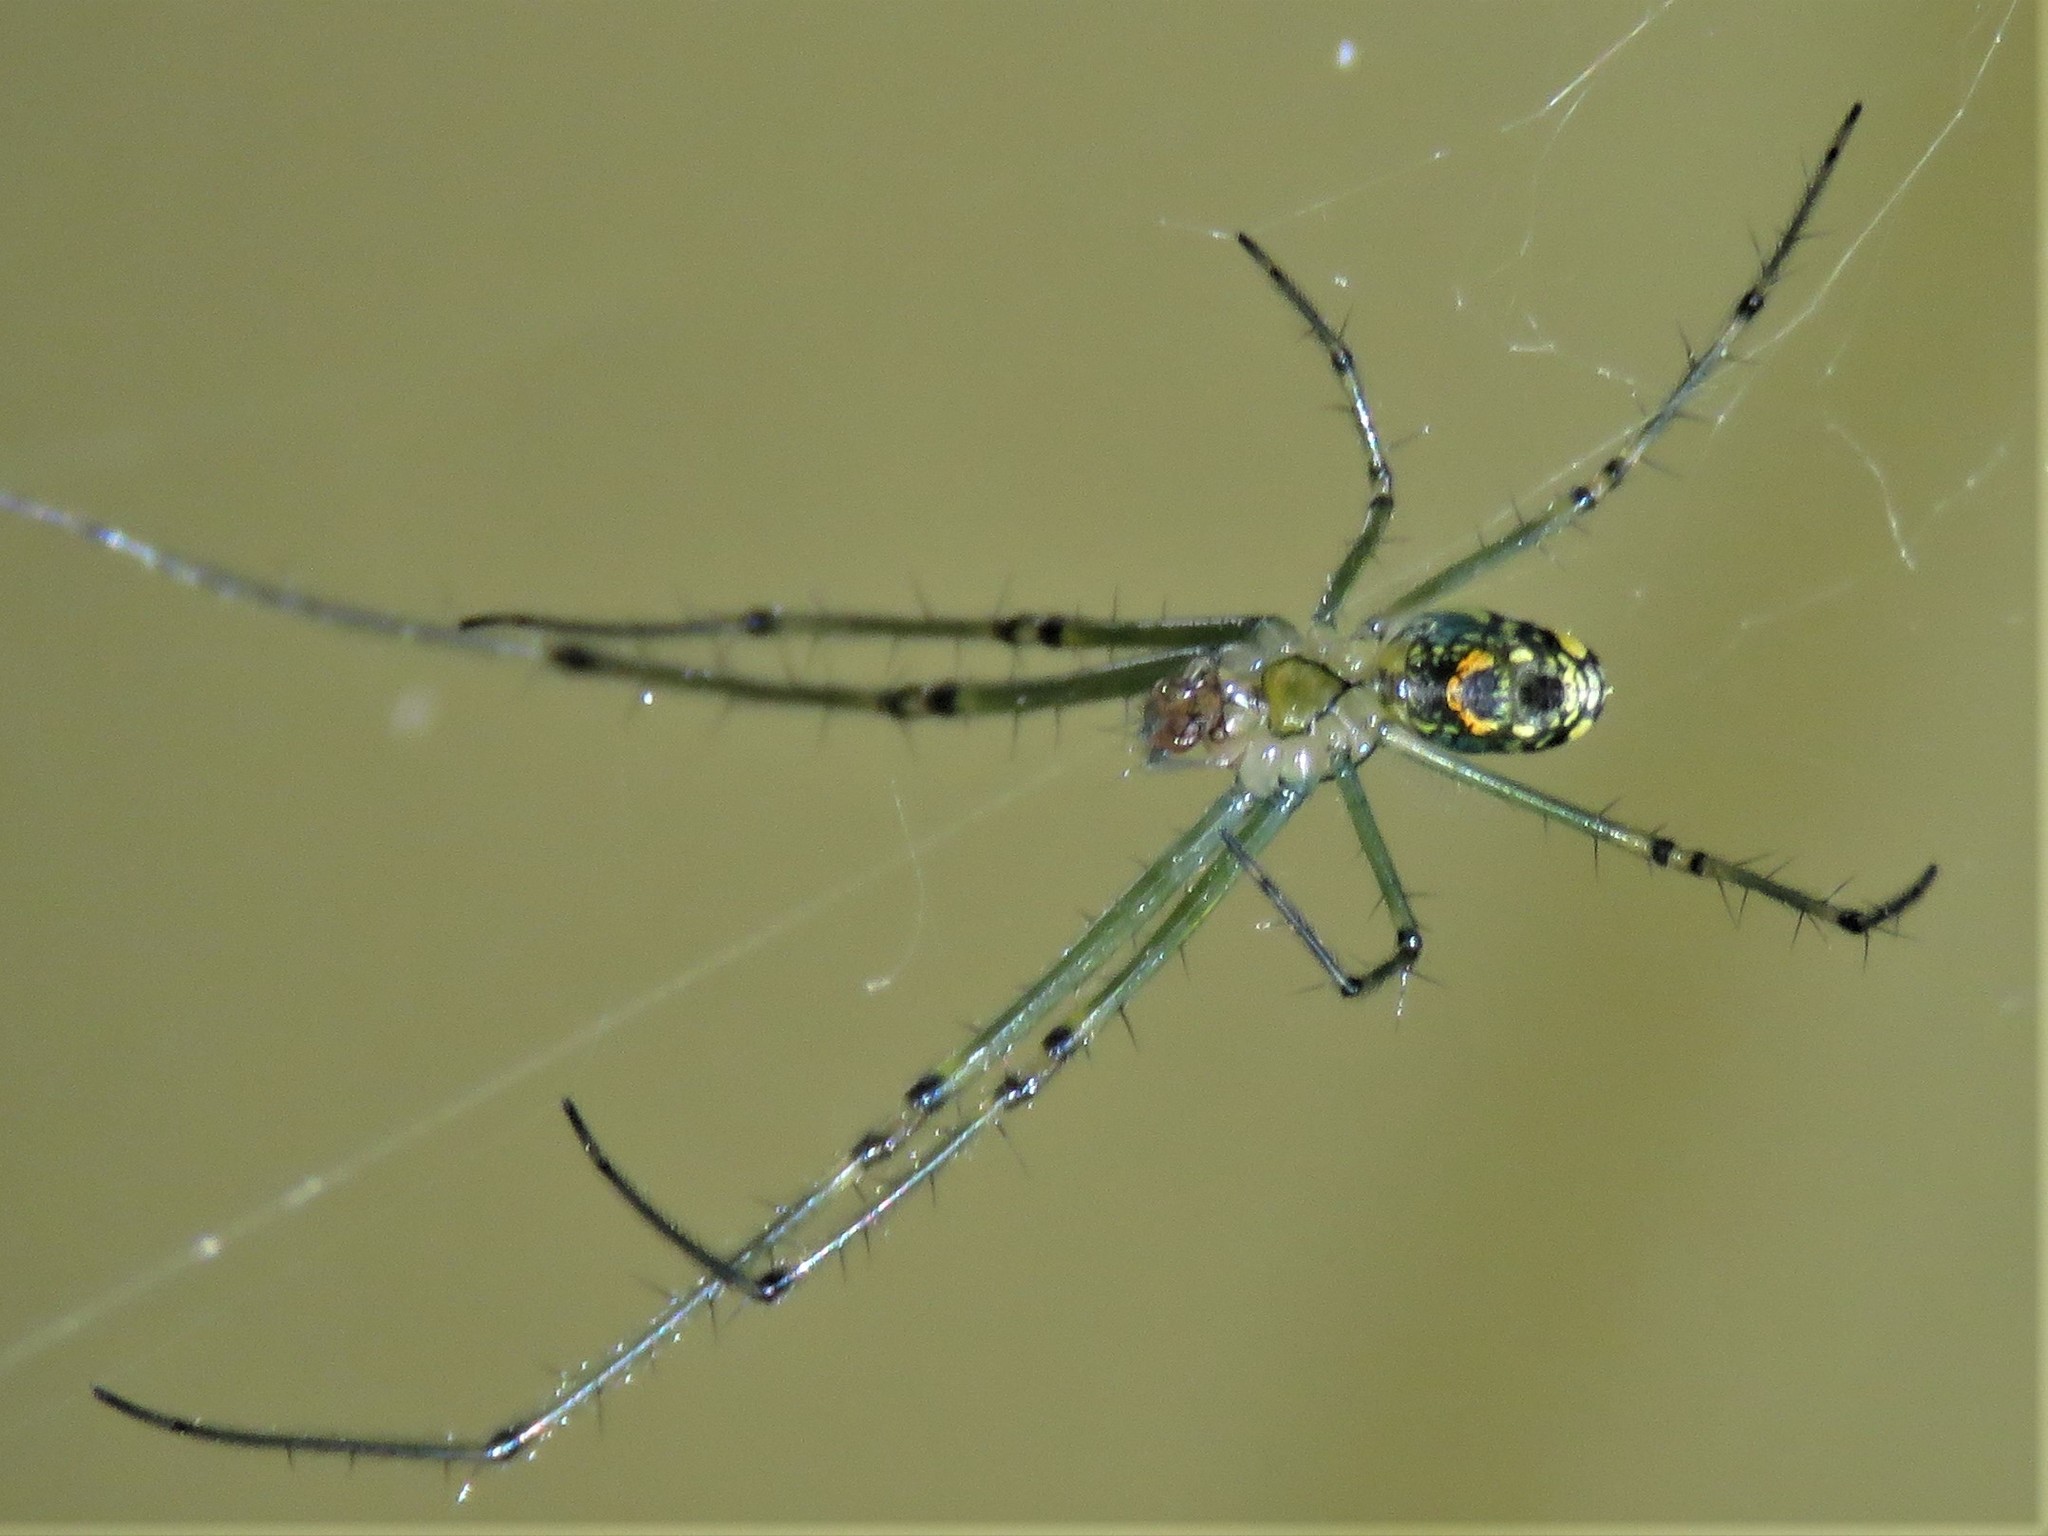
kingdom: Animalia
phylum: Arthropoda
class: Arachnida
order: Araneae
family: Tetragnathidae
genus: Leucauge
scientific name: Leucauge venusta
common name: Longjawed orb weavers
